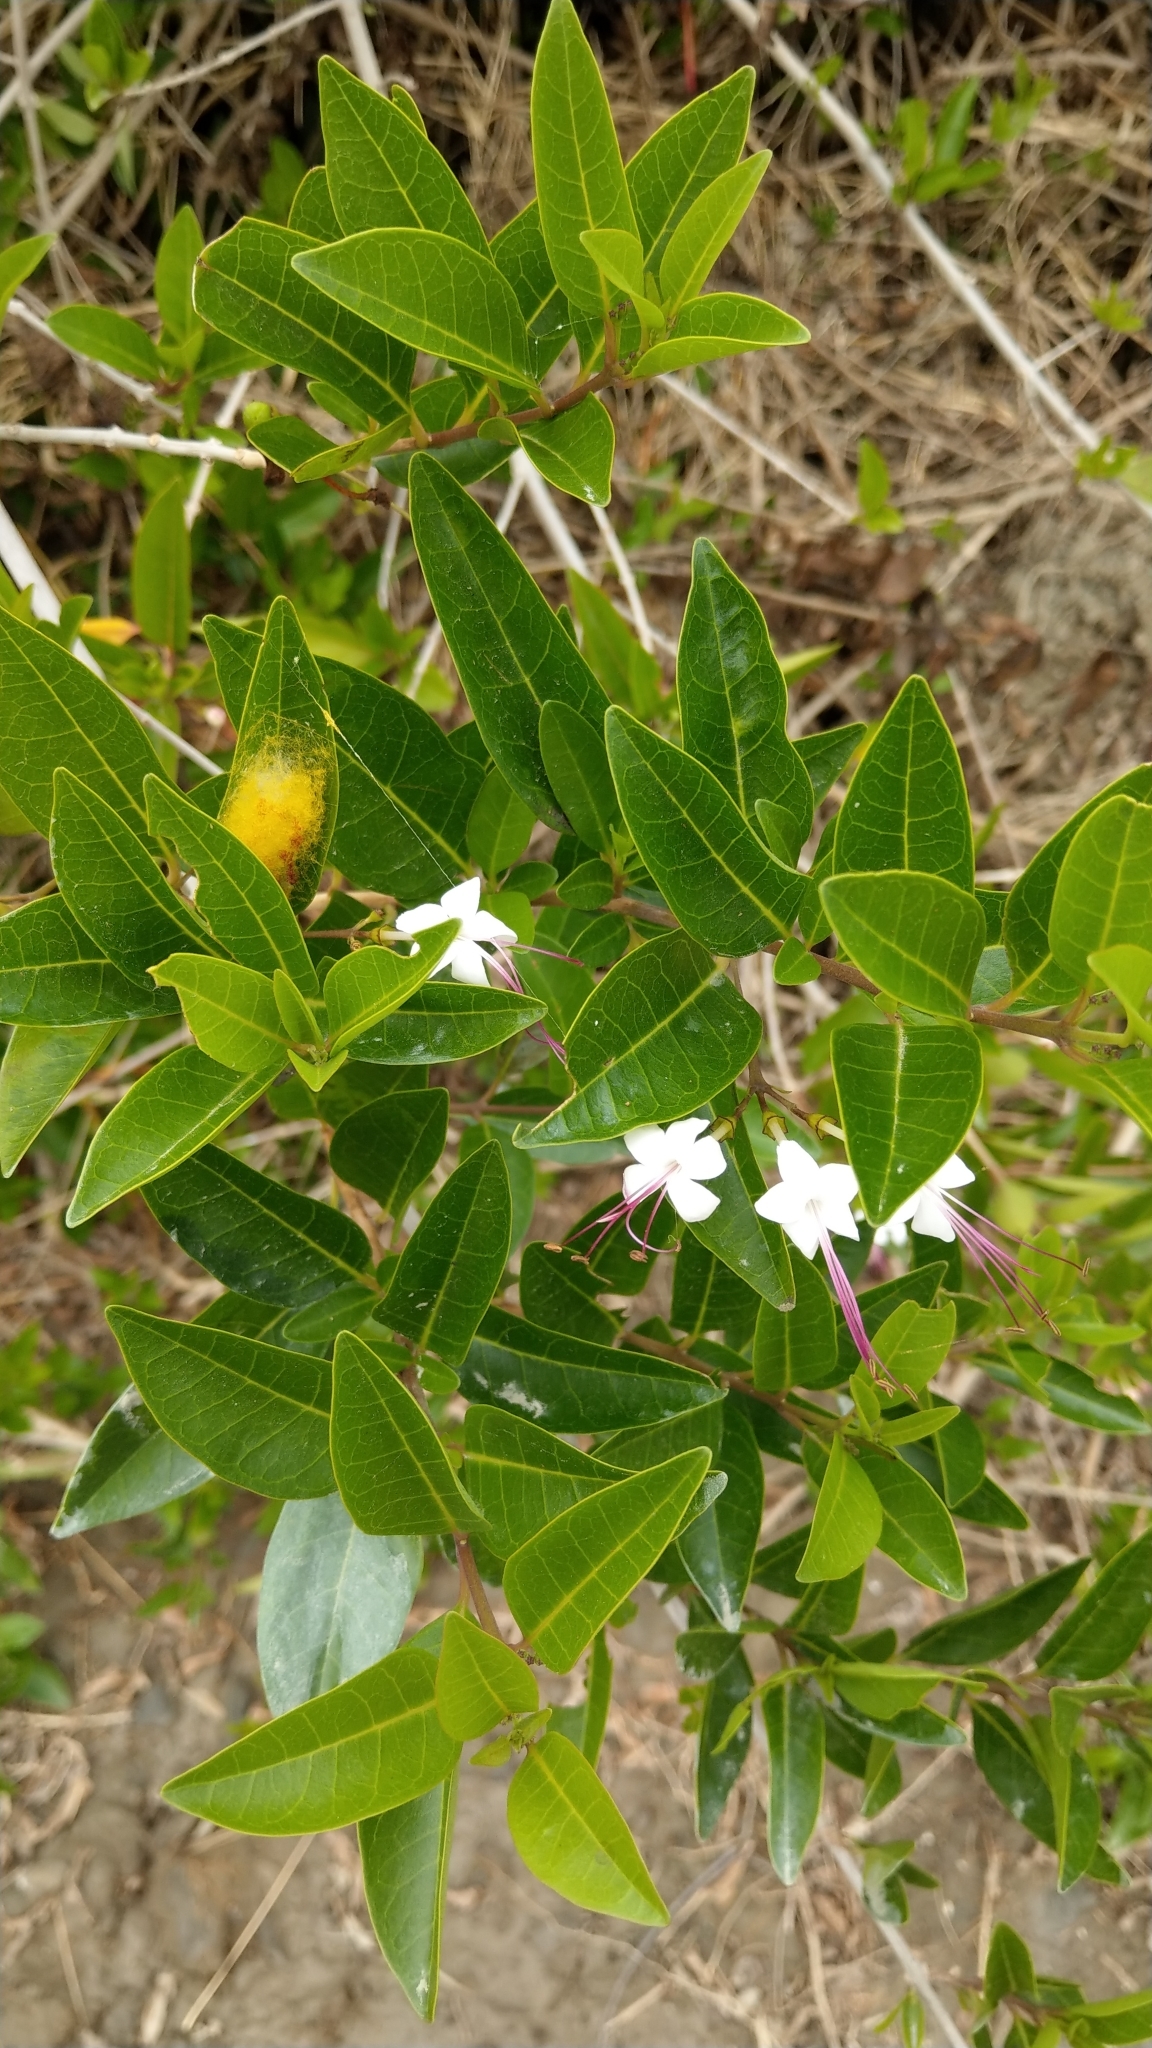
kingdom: Plantae
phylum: Tracheophyta
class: Magnoliopsida
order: Lamiales
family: Lamiaceae
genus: Volkameria
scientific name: Volkameria inermis
